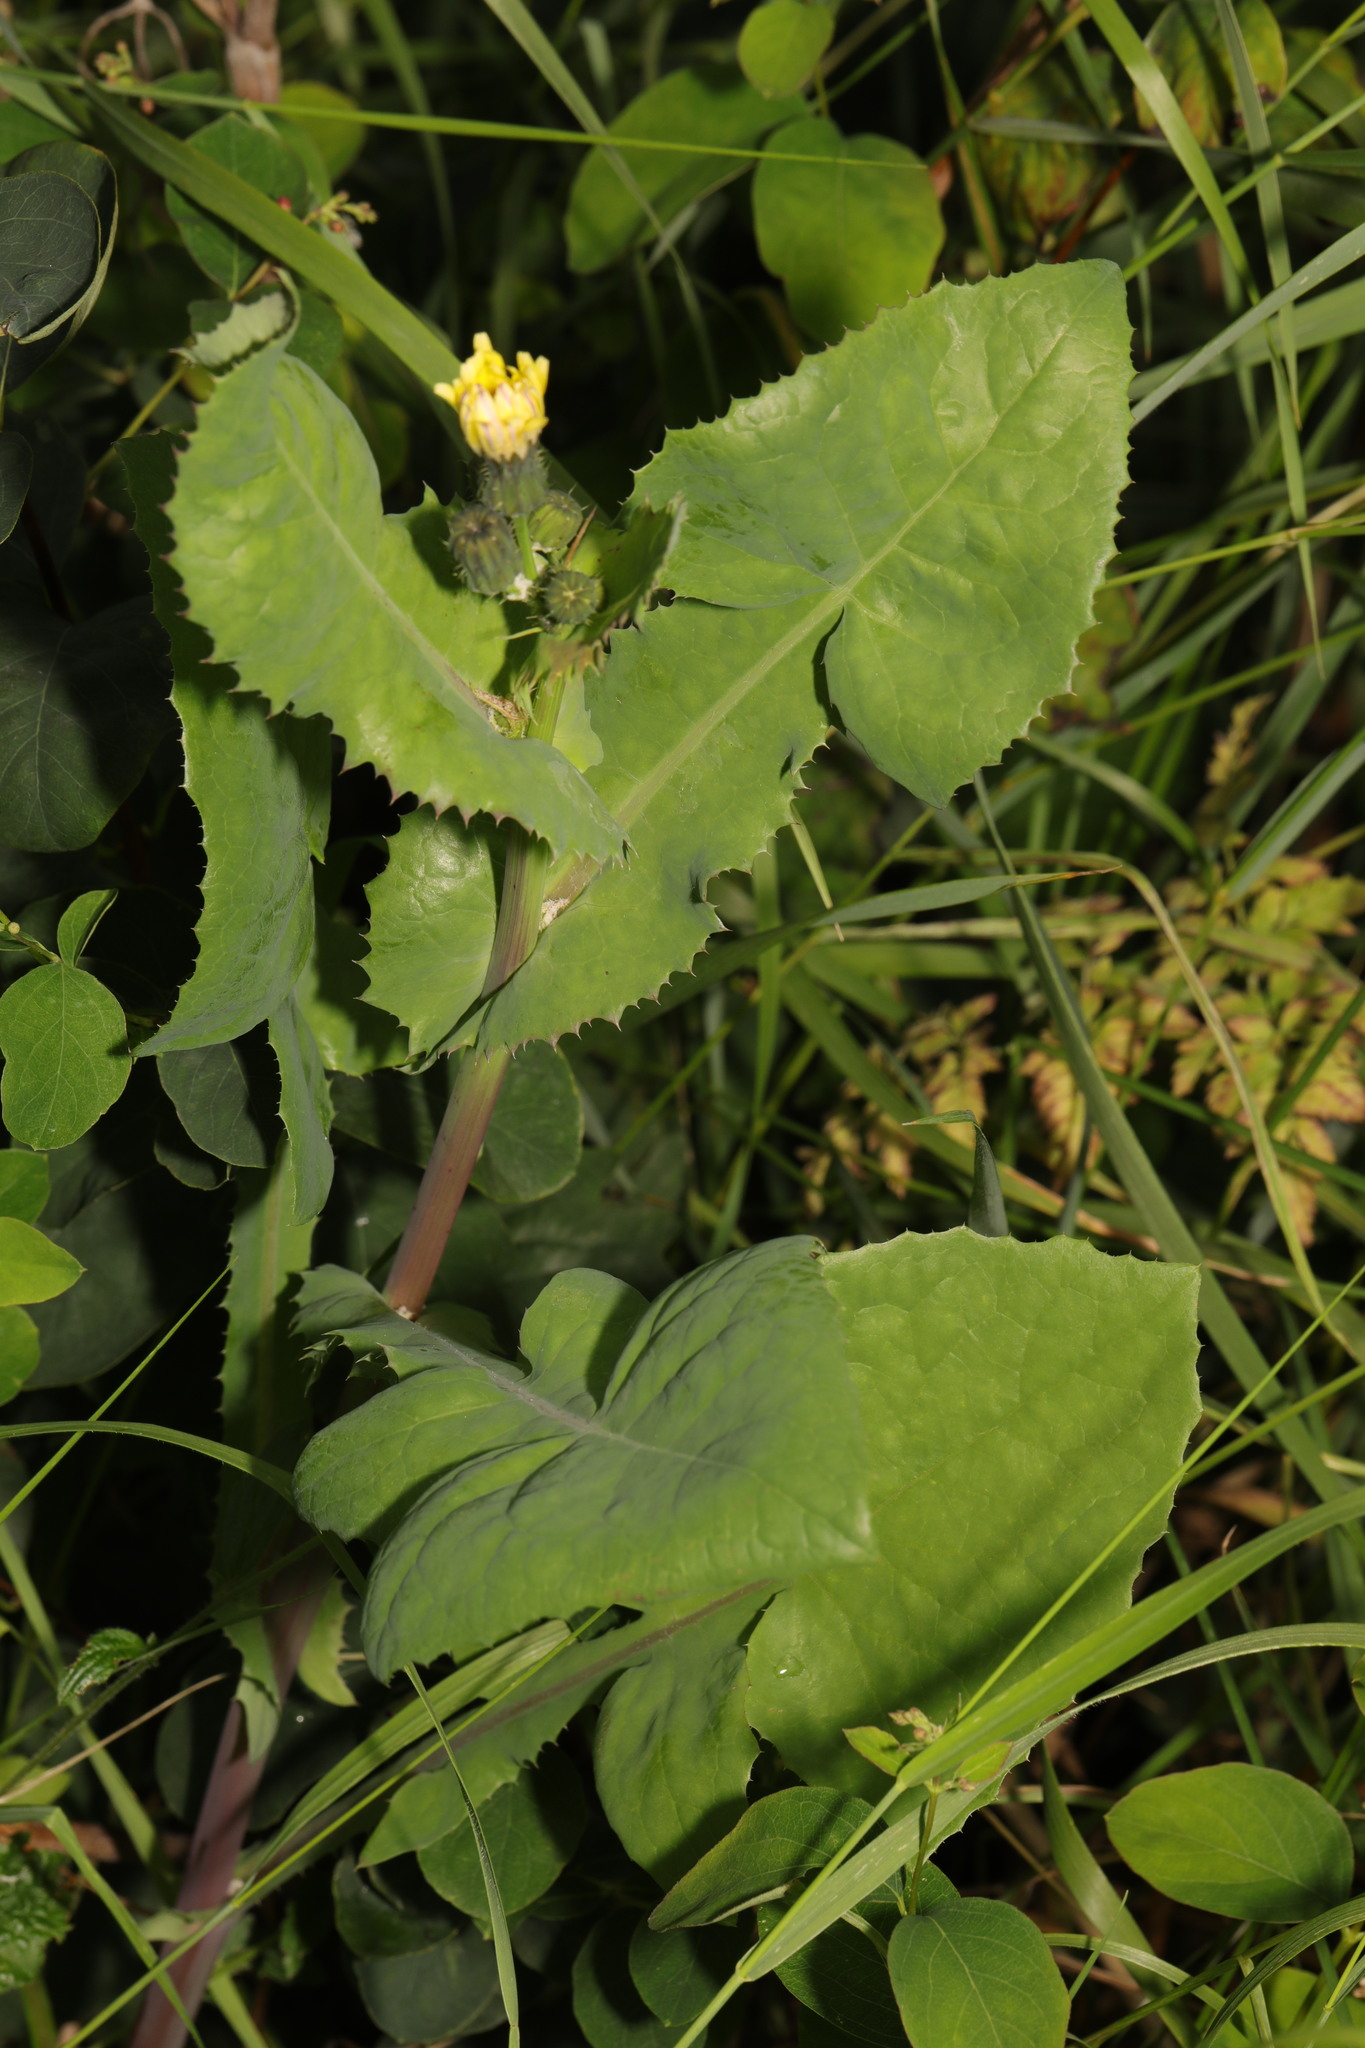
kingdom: Plantae
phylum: Tracheophyta
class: Magnoliopsida
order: Asterales
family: Asteraceae
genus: Sonchus
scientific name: Sonchus oleraceus
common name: Common sowthistle
